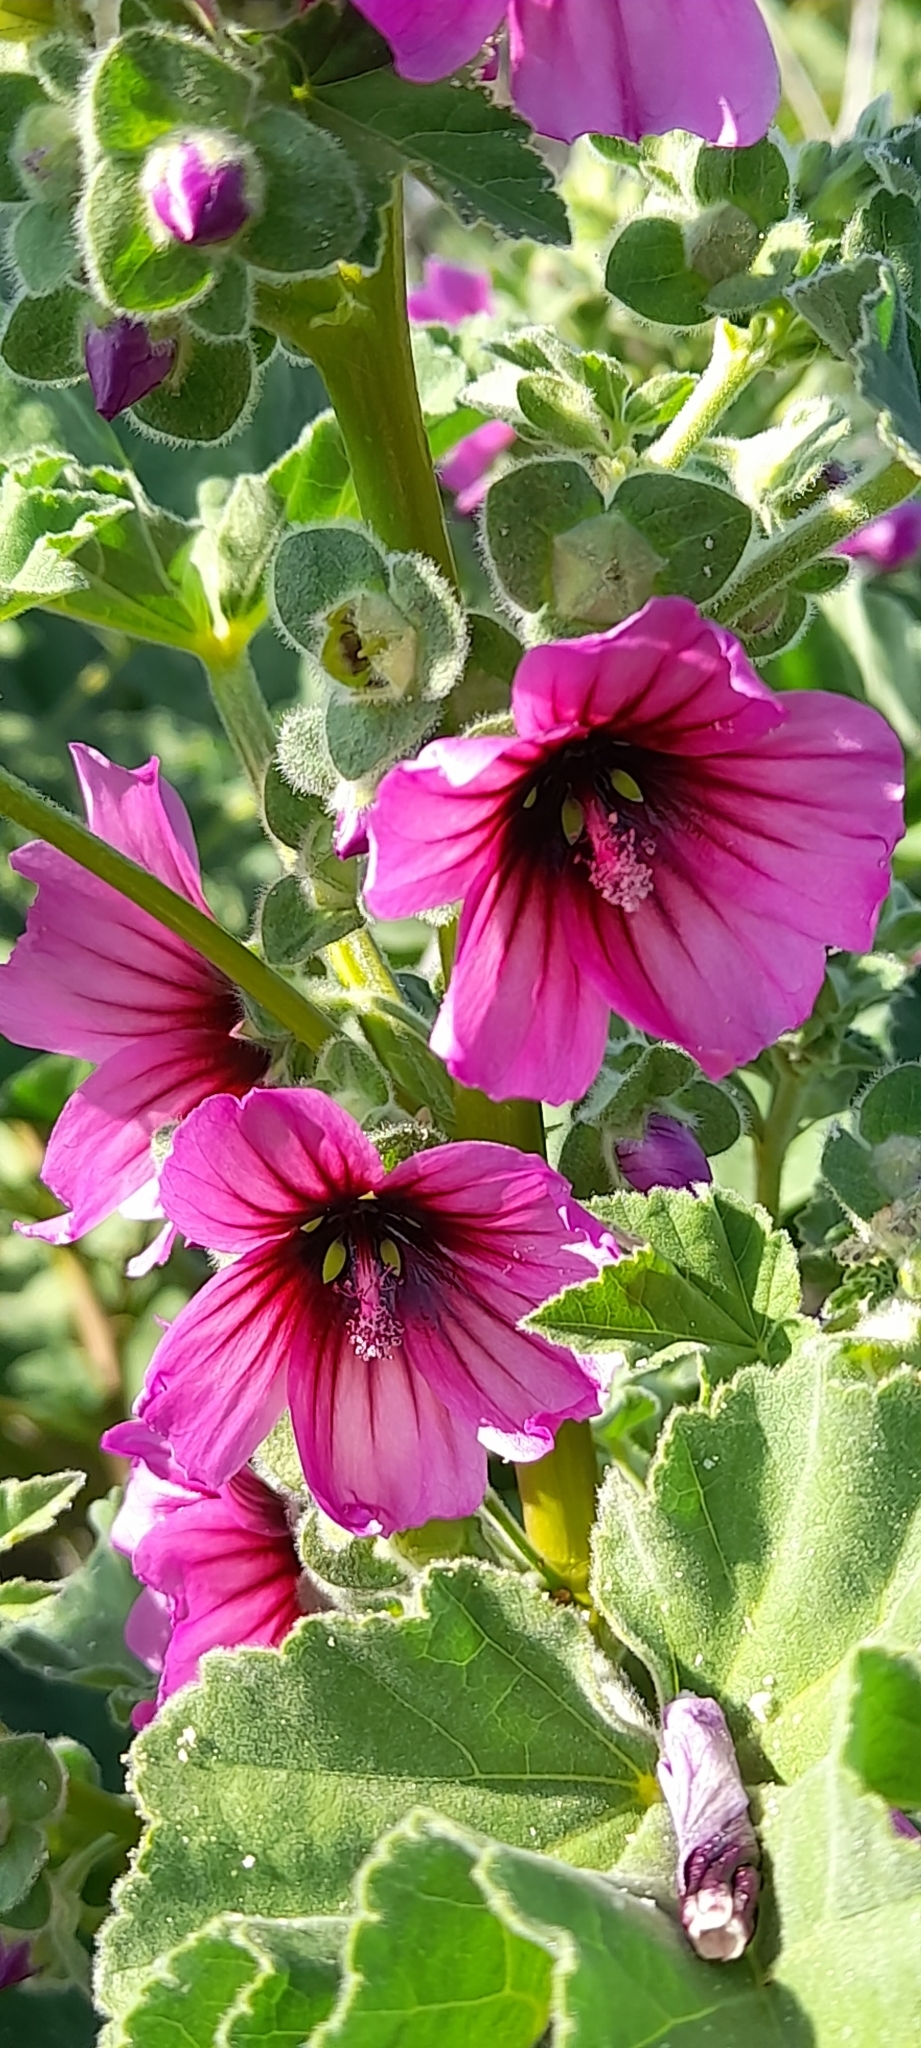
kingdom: Plantae
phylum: Tracheophyta
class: Magnoliopsida
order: Malvales
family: Malvaceae
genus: Malva
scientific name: Malva arborea
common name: Tree mallow
